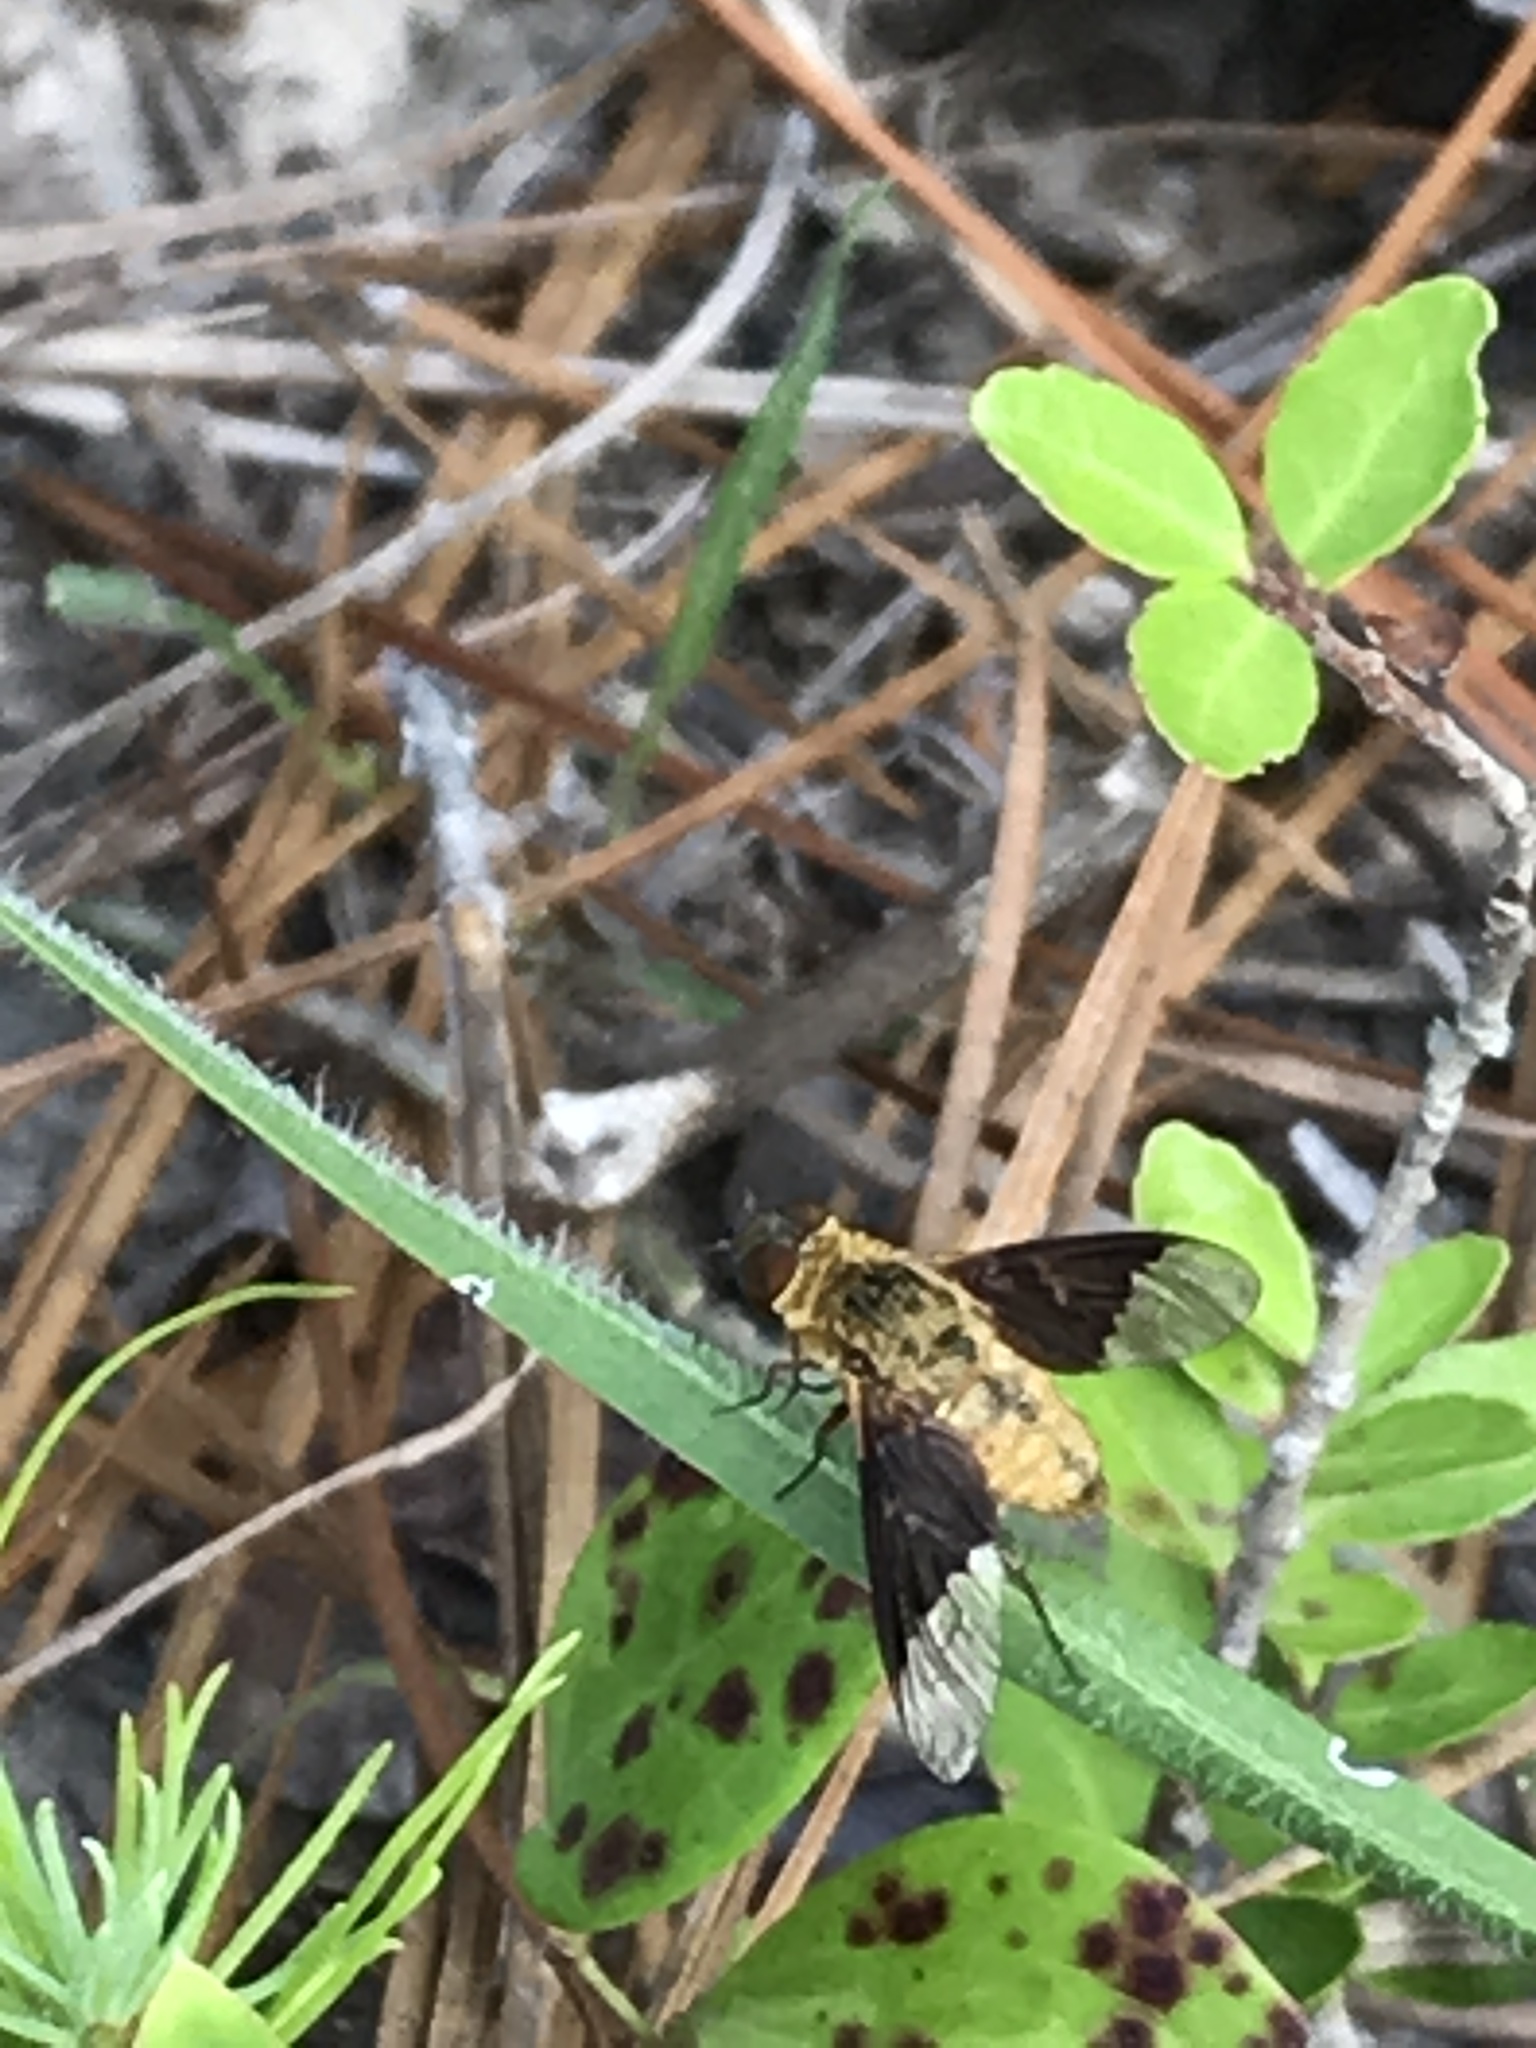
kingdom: Animalia
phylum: Arthropoda
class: Insecta
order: Diptera
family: Bombyliidae
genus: Chrysanthrax
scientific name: Chrysanthrax cypris
